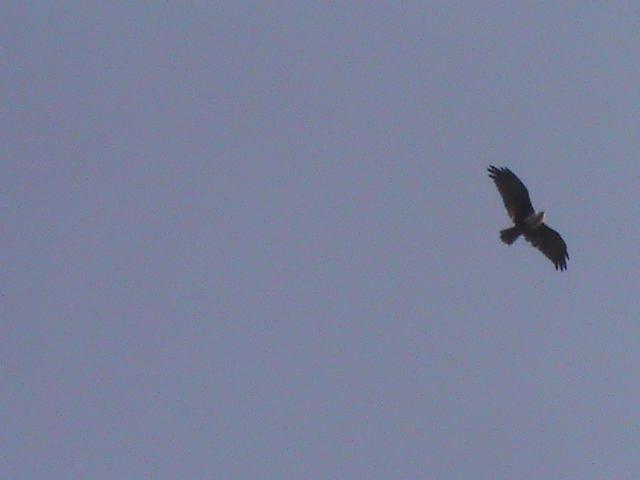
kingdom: Animalia
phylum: Chordata
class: Aves
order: Accipitriformes
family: Accipitridae
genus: Haliastur
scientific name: Haliastur indus
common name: Brahminy kite
